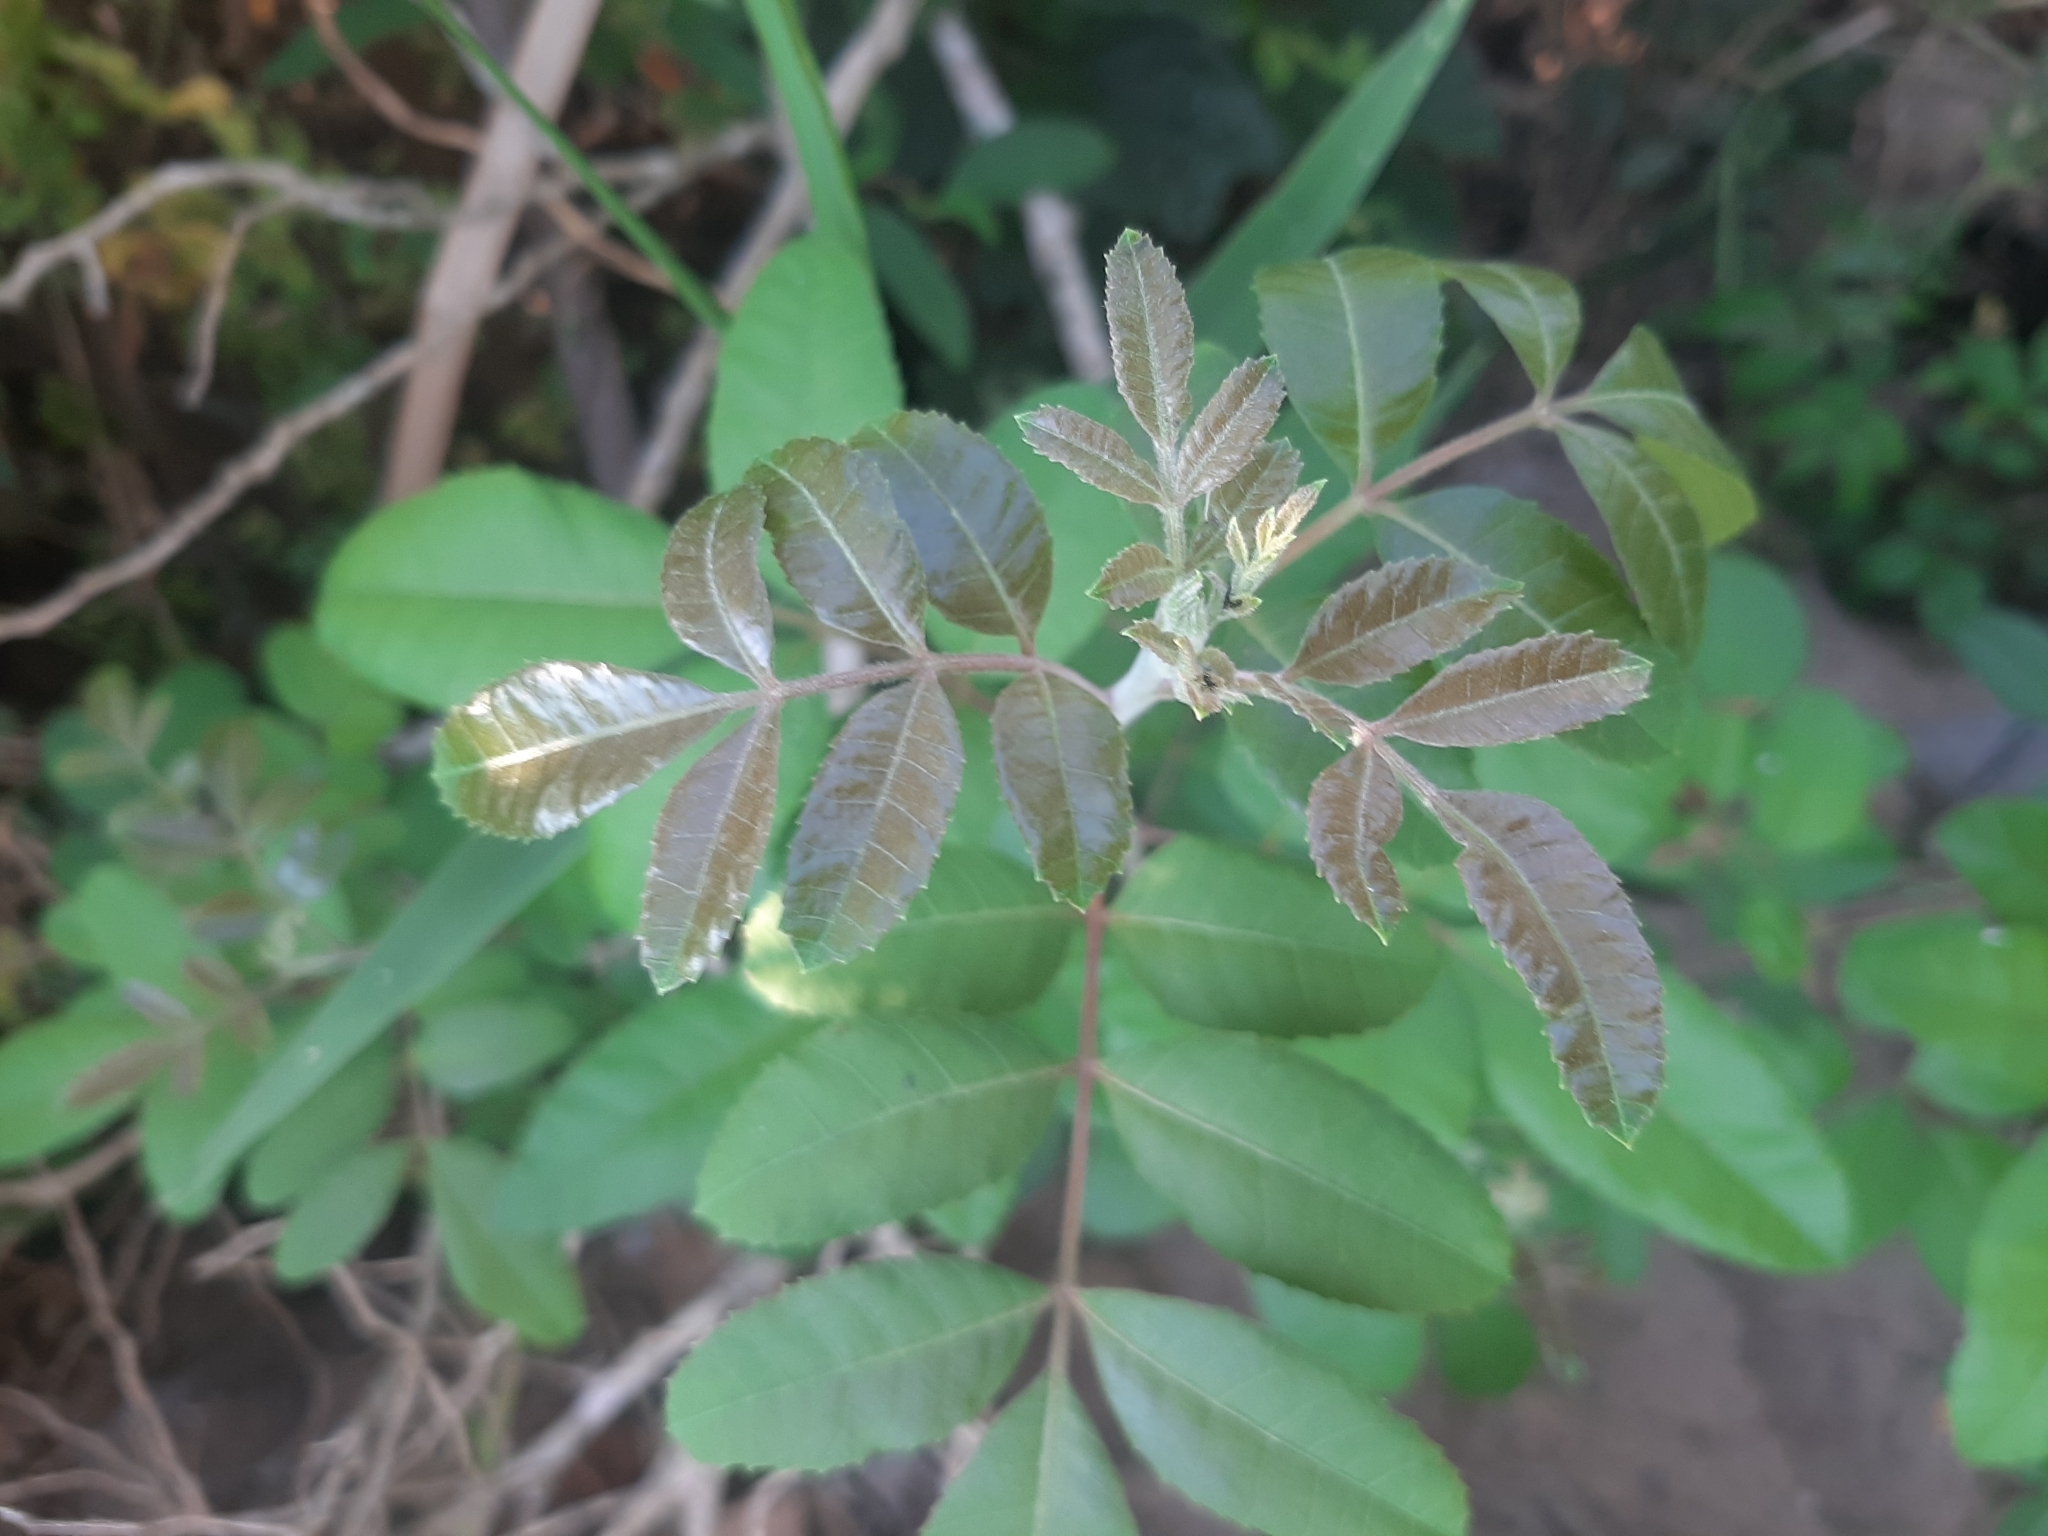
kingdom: Plantae
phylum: Tracheophyta
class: Magnoliopsida
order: Sapindales
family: Anacardiaceae
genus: Schinus
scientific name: Schinus terebinthifolia
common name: Brazilian peppertree
